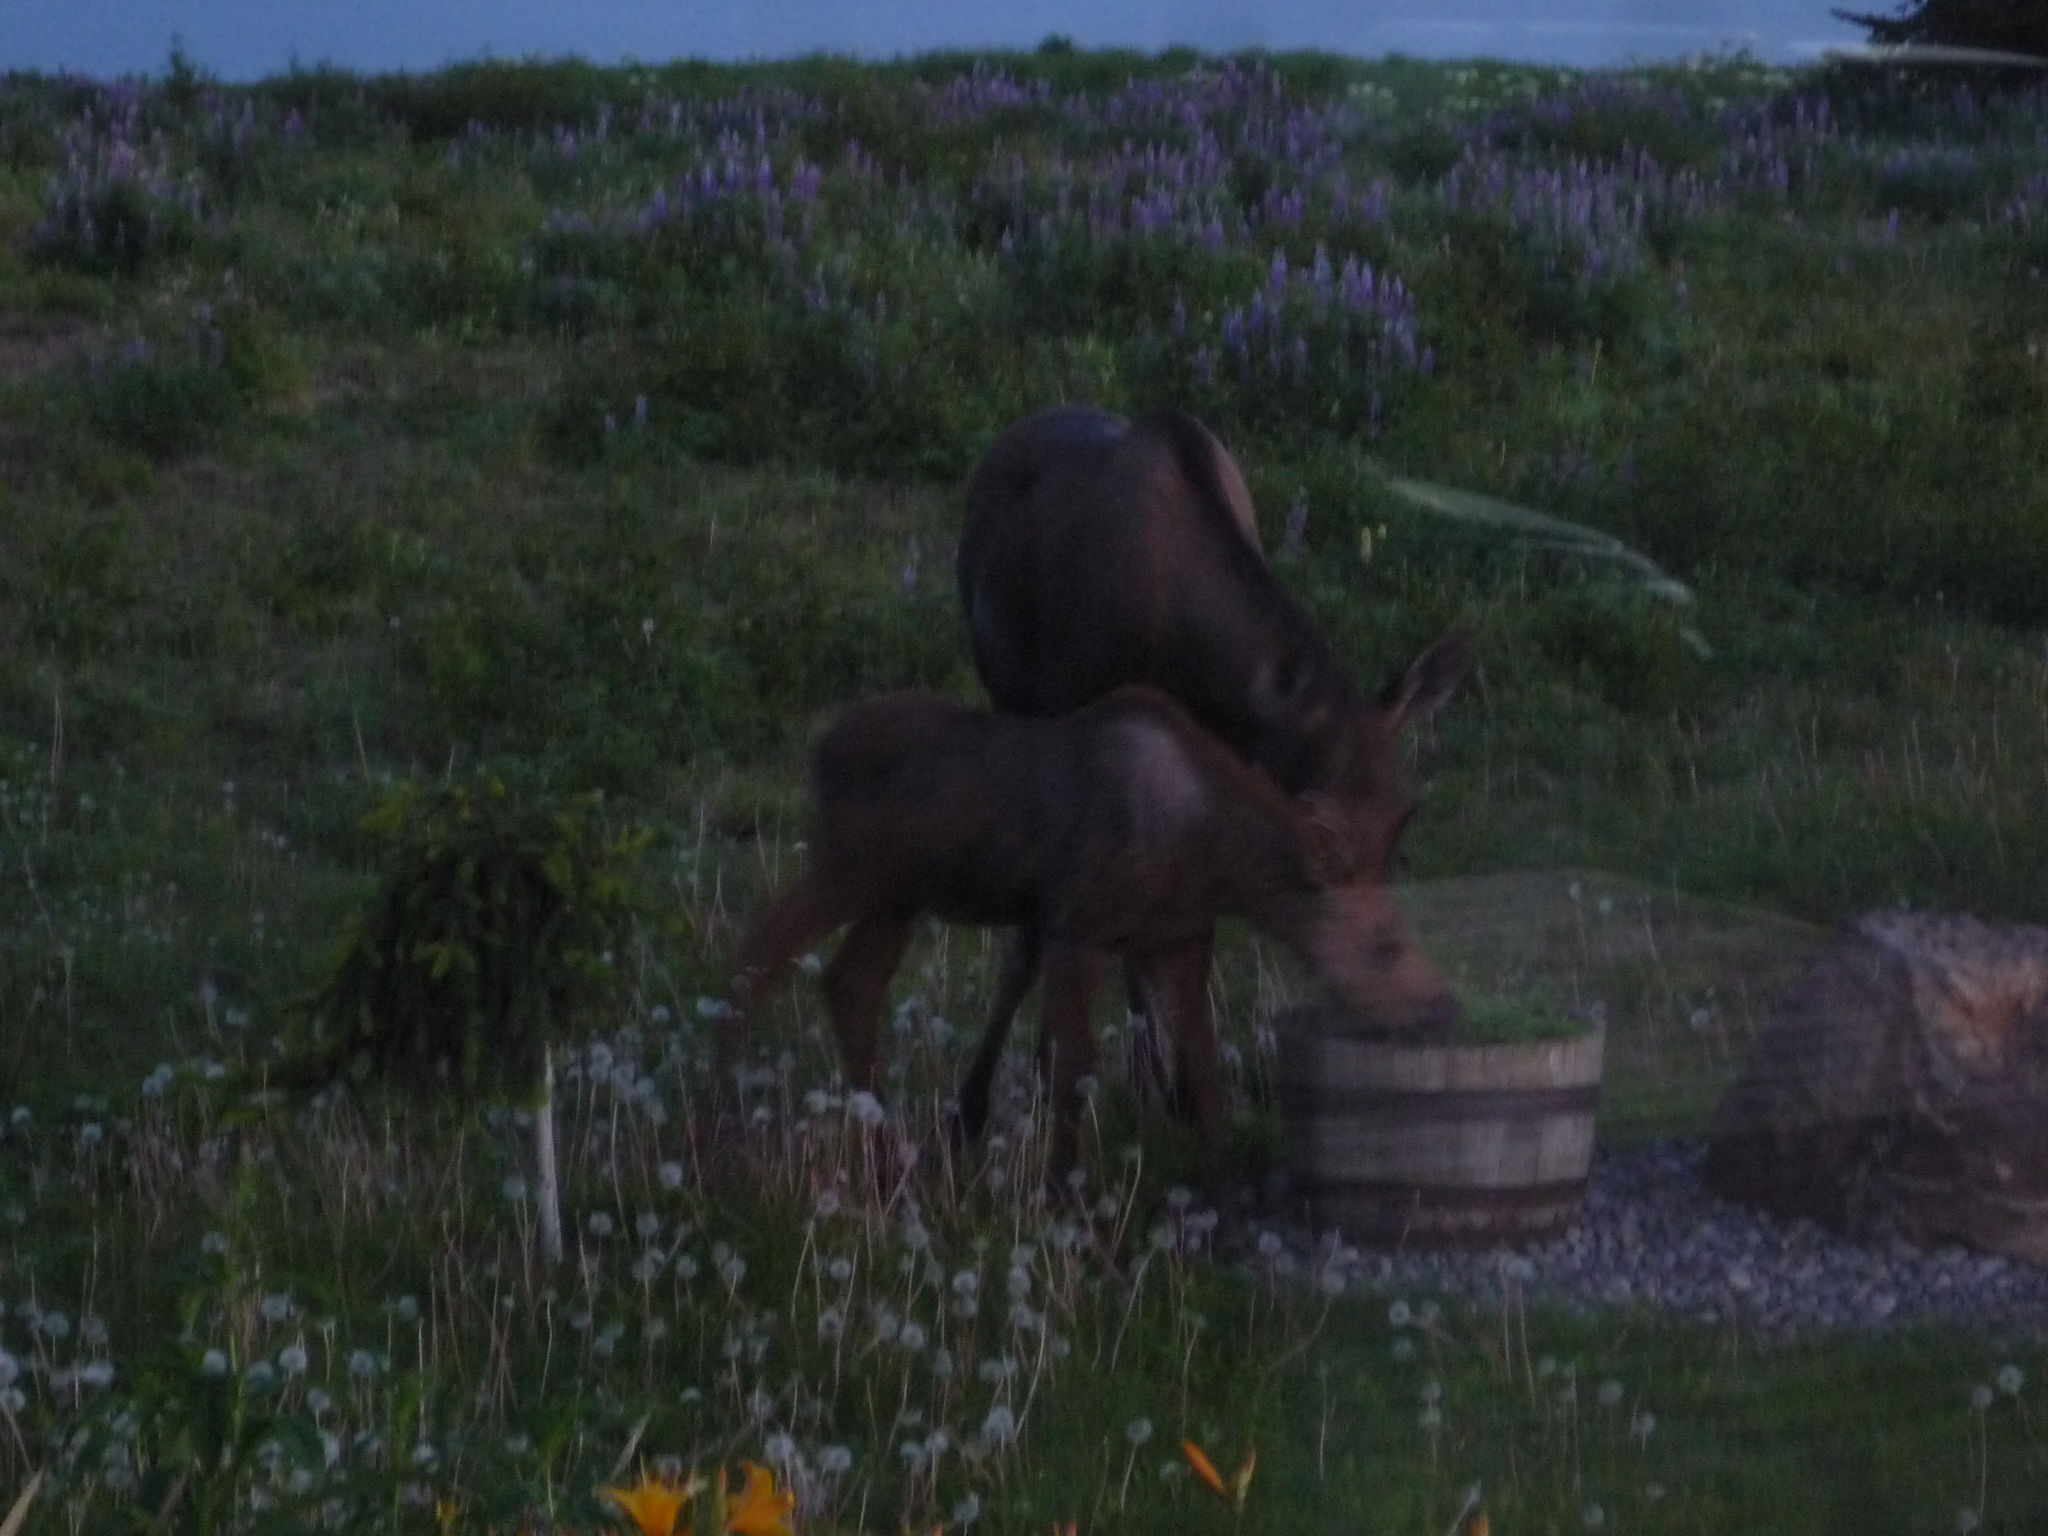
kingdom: Animalia
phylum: Chordata
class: Mammalia
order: Artiodactyla
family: Cervidae
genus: Alces
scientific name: Alces alces
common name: Moose
